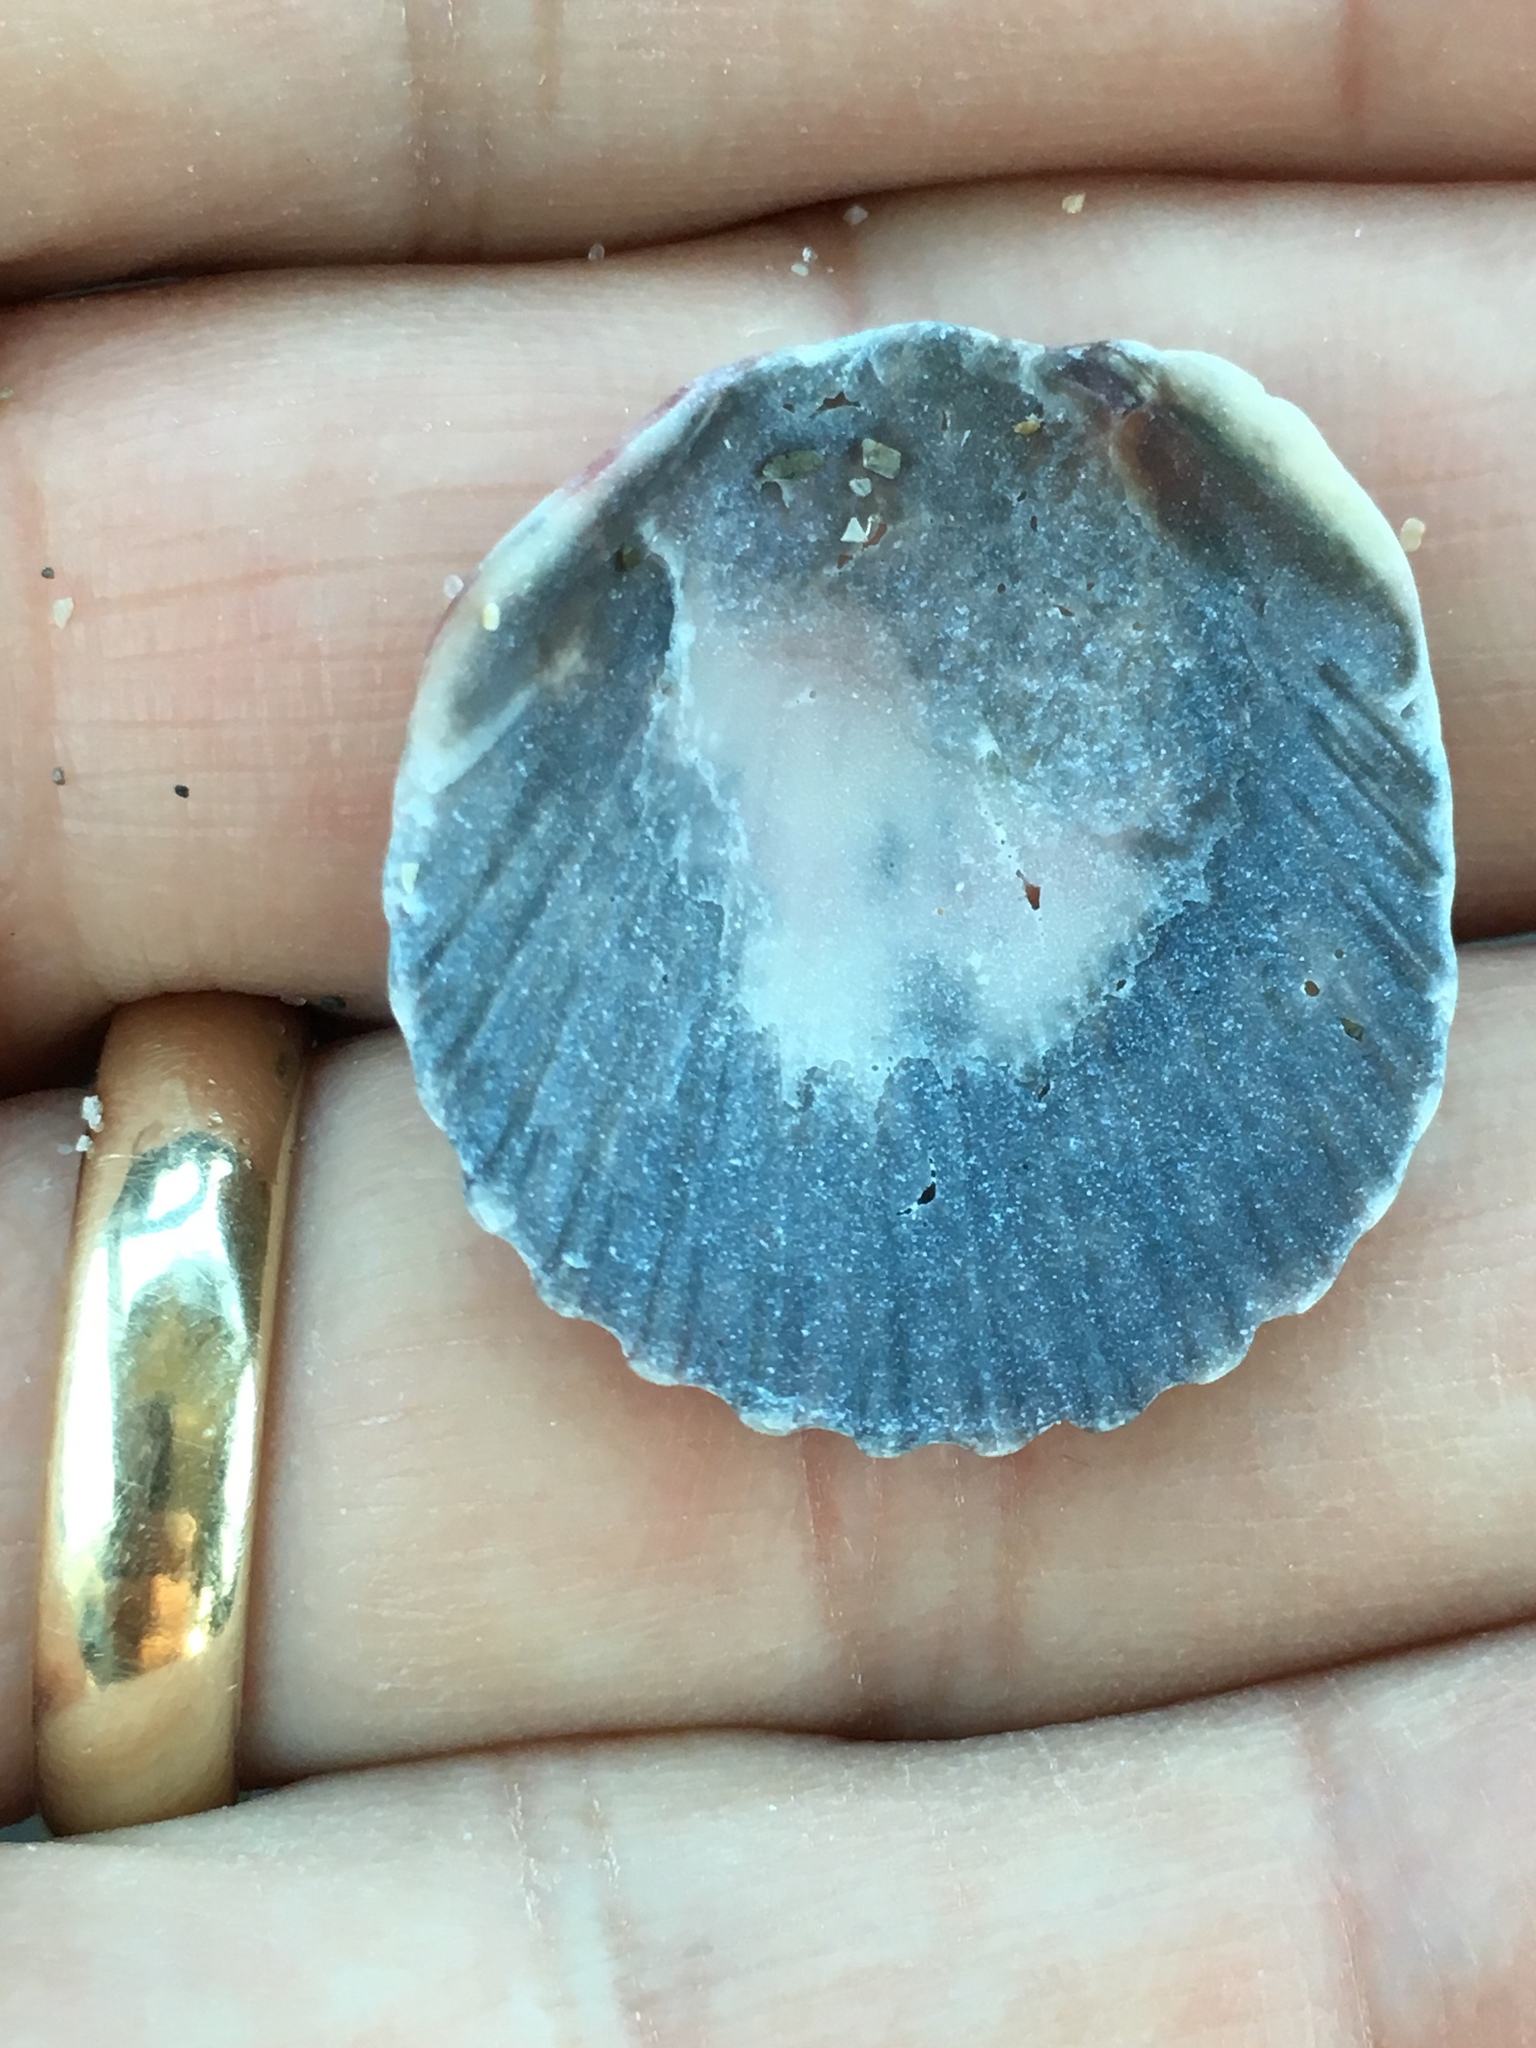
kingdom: Animalia
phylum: Mollusca
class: Bivalvia
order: Pectinida
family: Pectinidae
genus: Argopecten
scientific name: Argopecten gibbus
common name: Atlantic calico scallop
